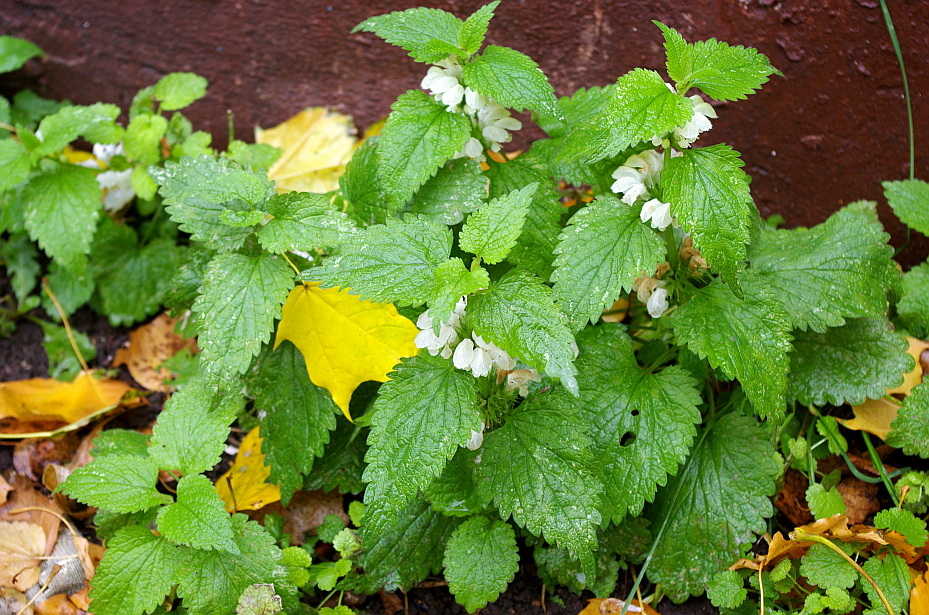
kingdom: Plantae
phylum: Tracheophyta
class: Magnoliopsida
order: Lamiales
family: Lamiaceae
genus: Lamium
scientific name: Lamium album
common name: White dead-nettle
